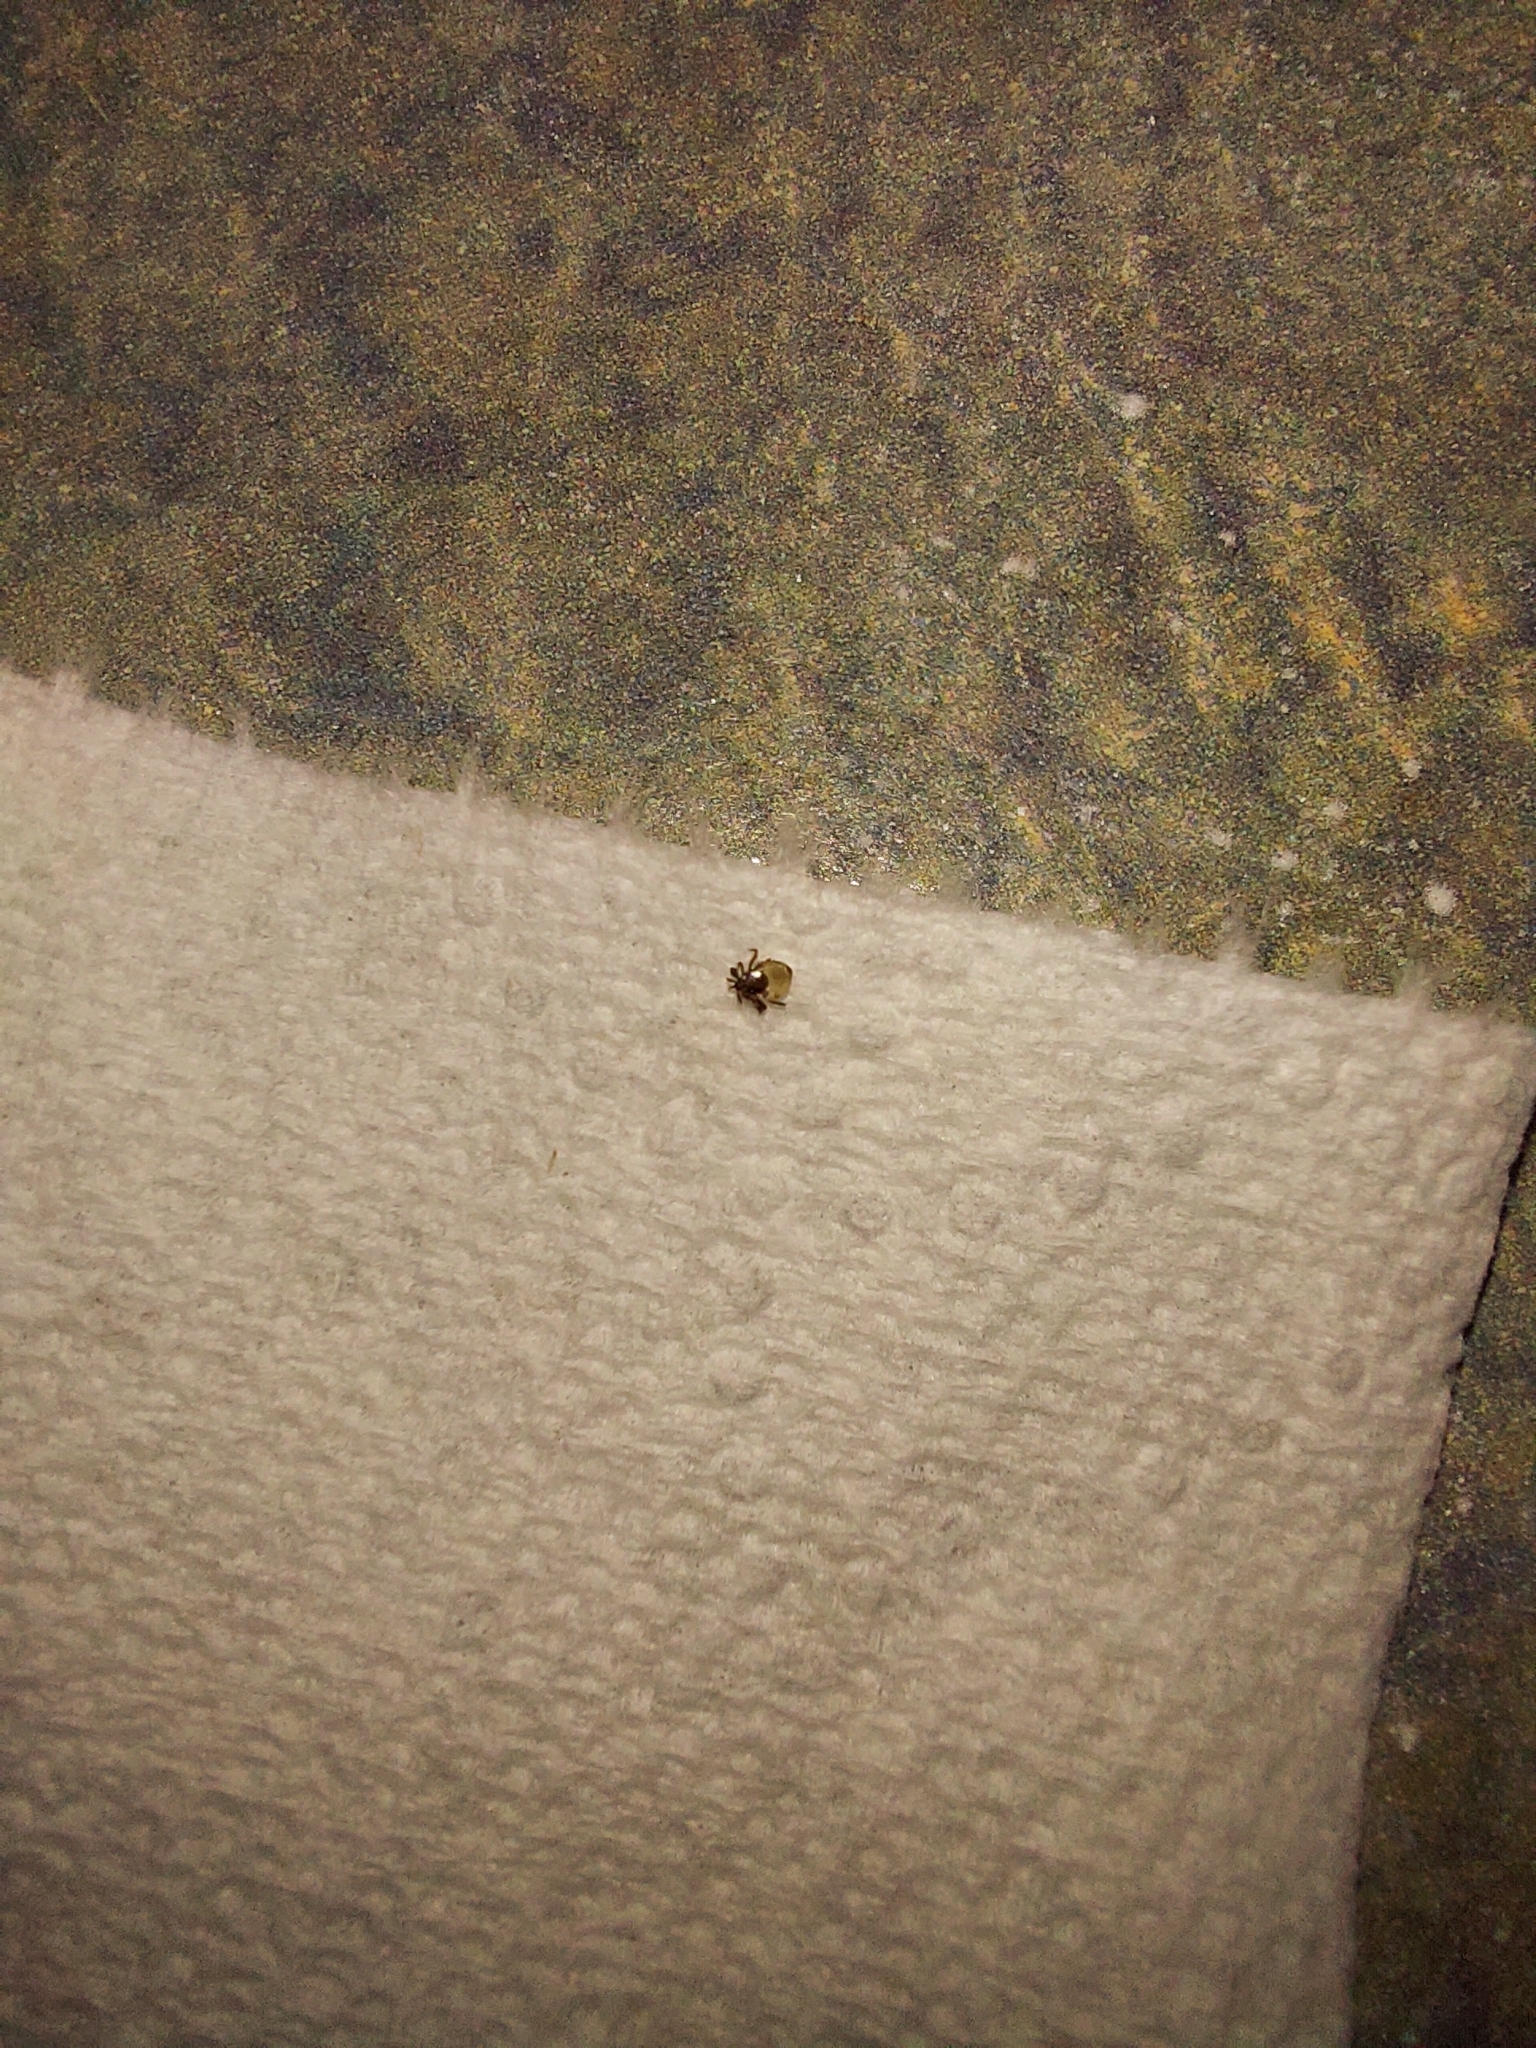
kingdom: Animalia
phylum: Arthropoda
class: Arachnida
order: Ixodida
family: Ixodidae
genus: Ixodes
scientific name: Ixodes scapularis
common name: Black legged tick
